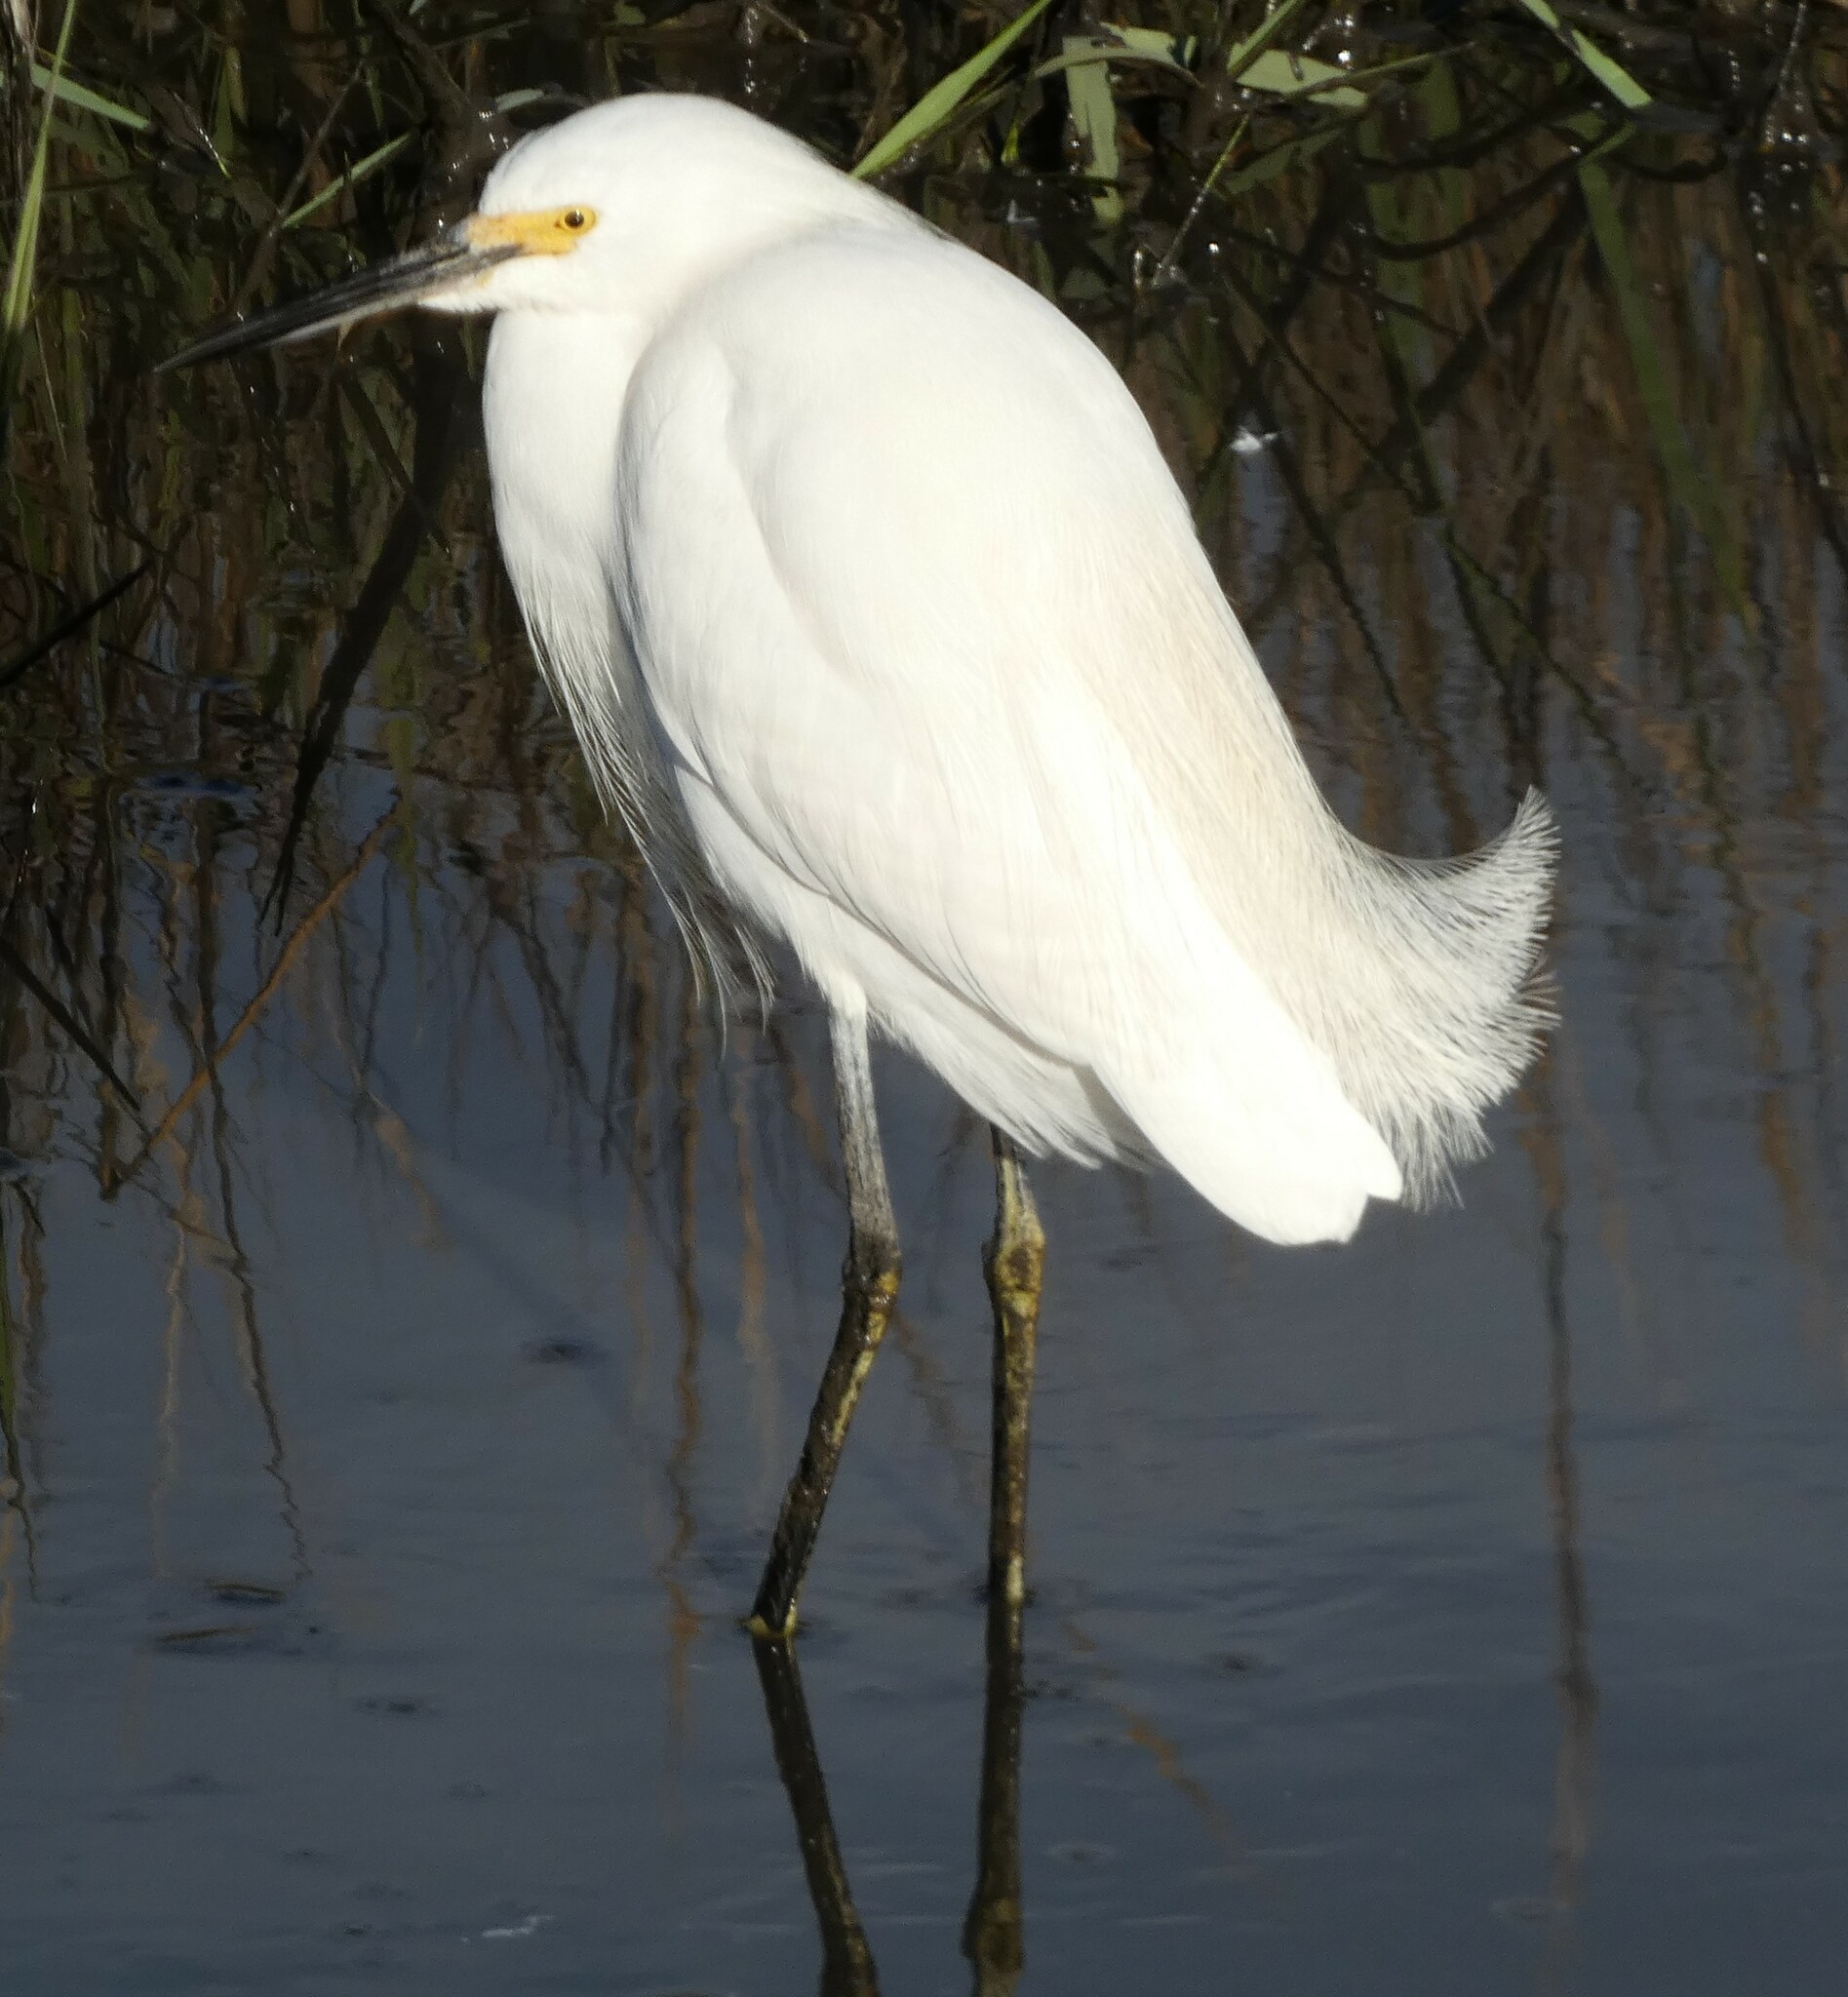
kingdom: Animalia
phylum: Chordata
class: Aves
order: Pelecaniformes
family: Ardeidae
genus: Egretta
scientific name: Egretta thula
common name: Snowy egret
